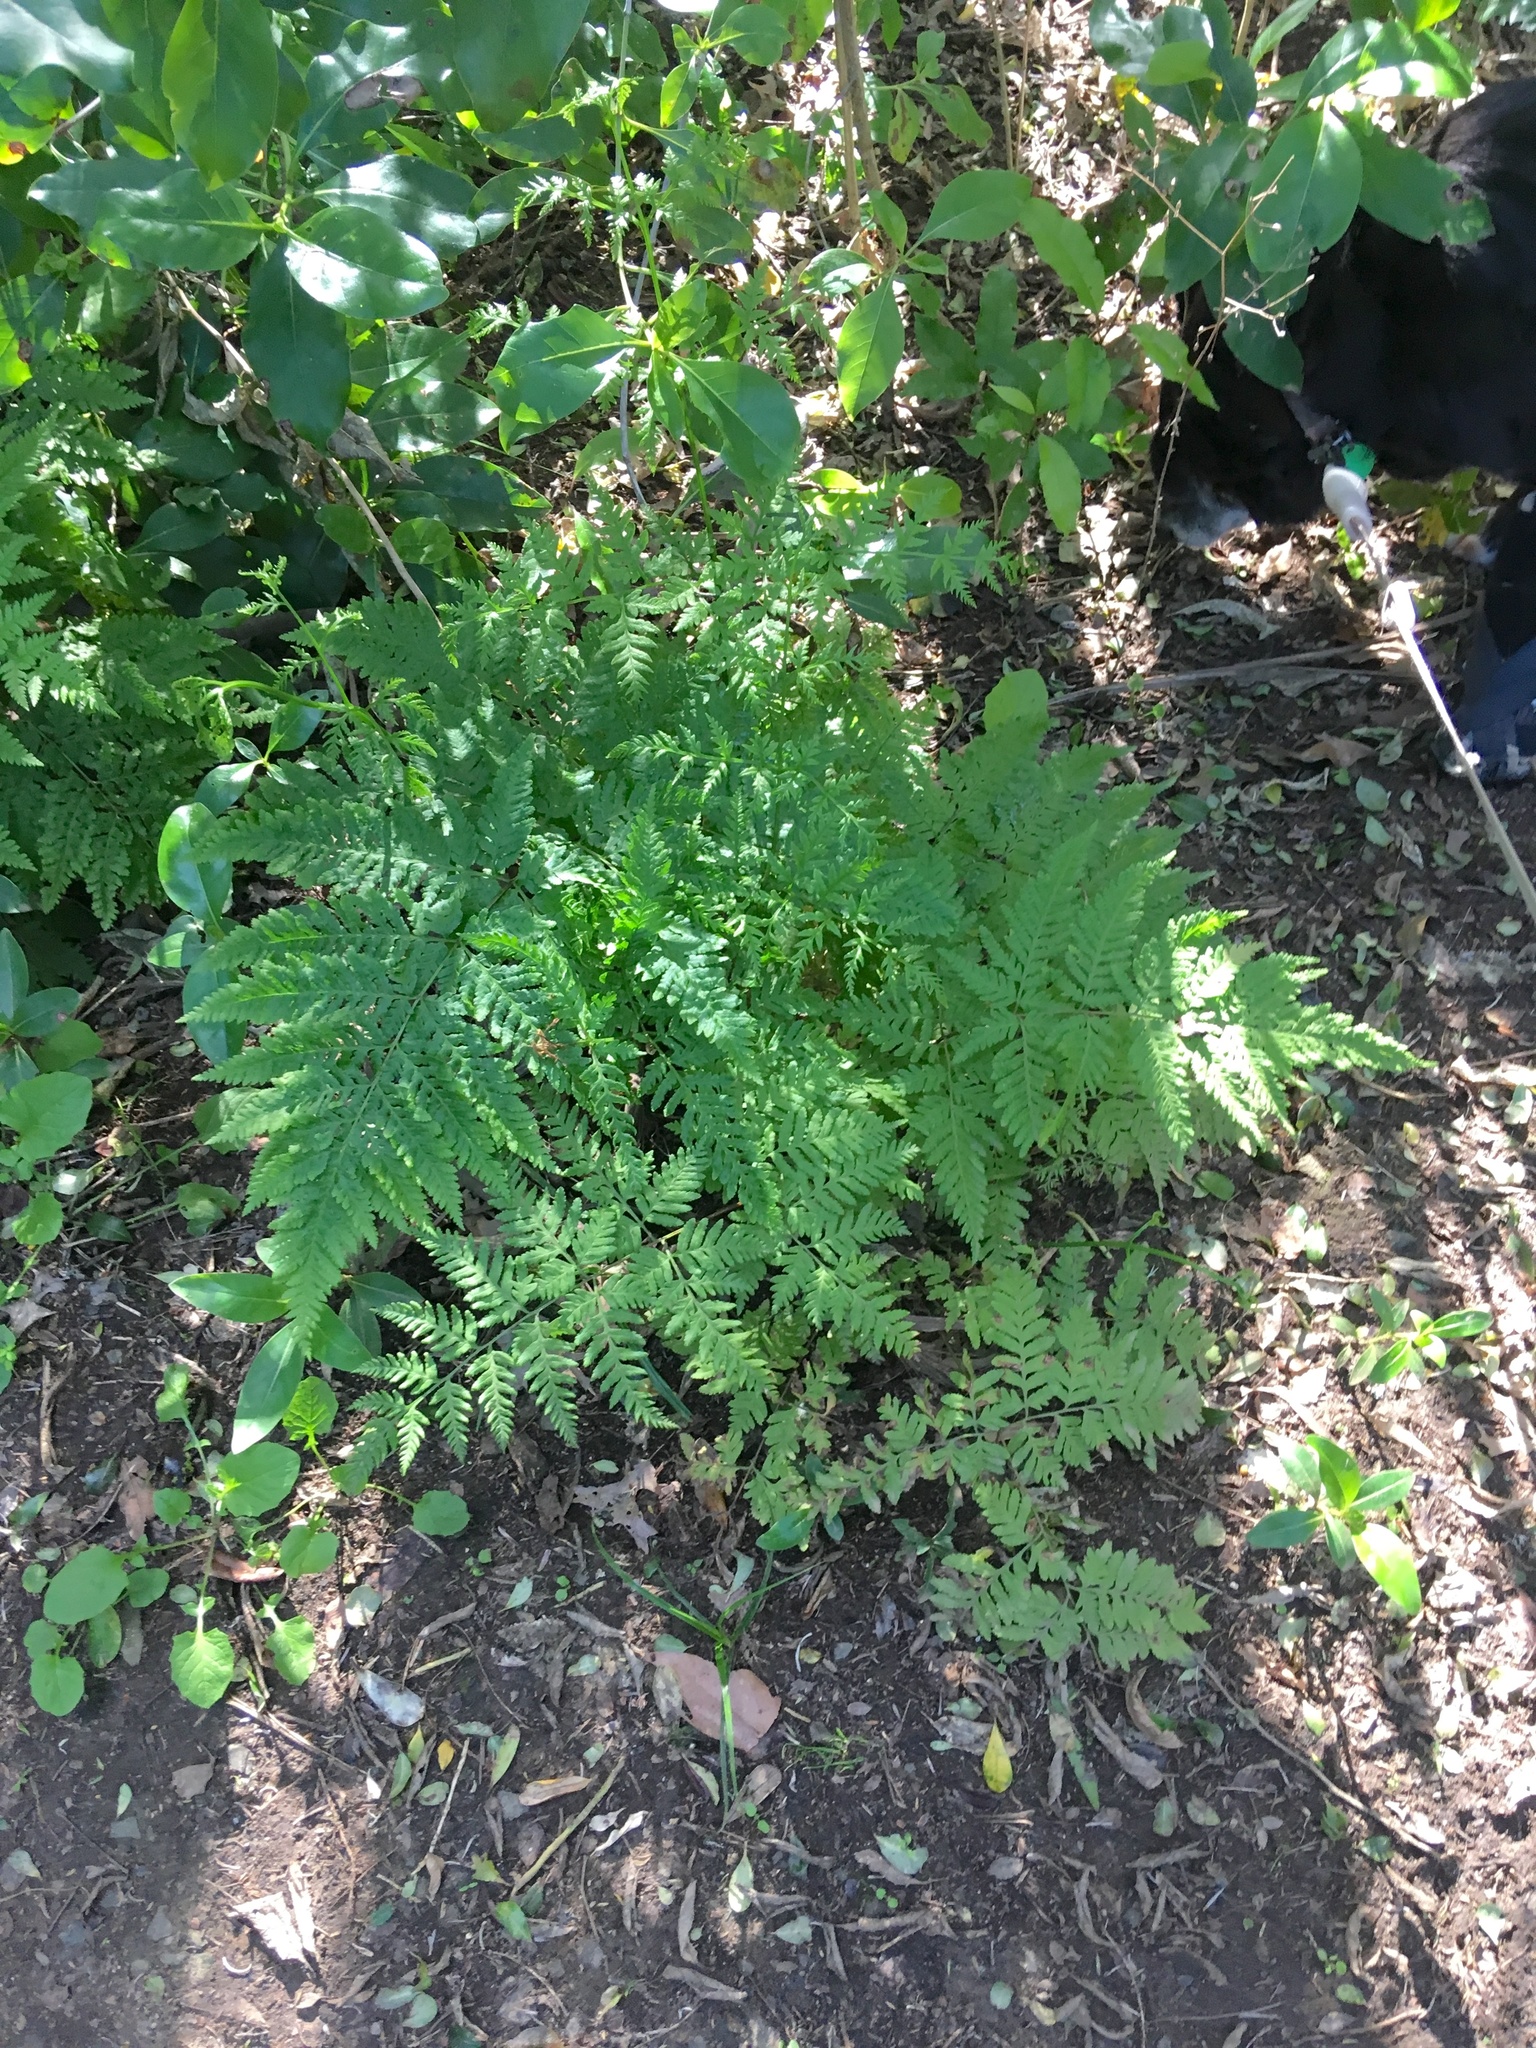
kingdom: Plantae
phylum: Tracheophyta
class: Polypodiopsida
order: Polypodiales
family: Pteridaceae
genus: Pteris
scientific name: Pteris tremula
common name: Australian brake
